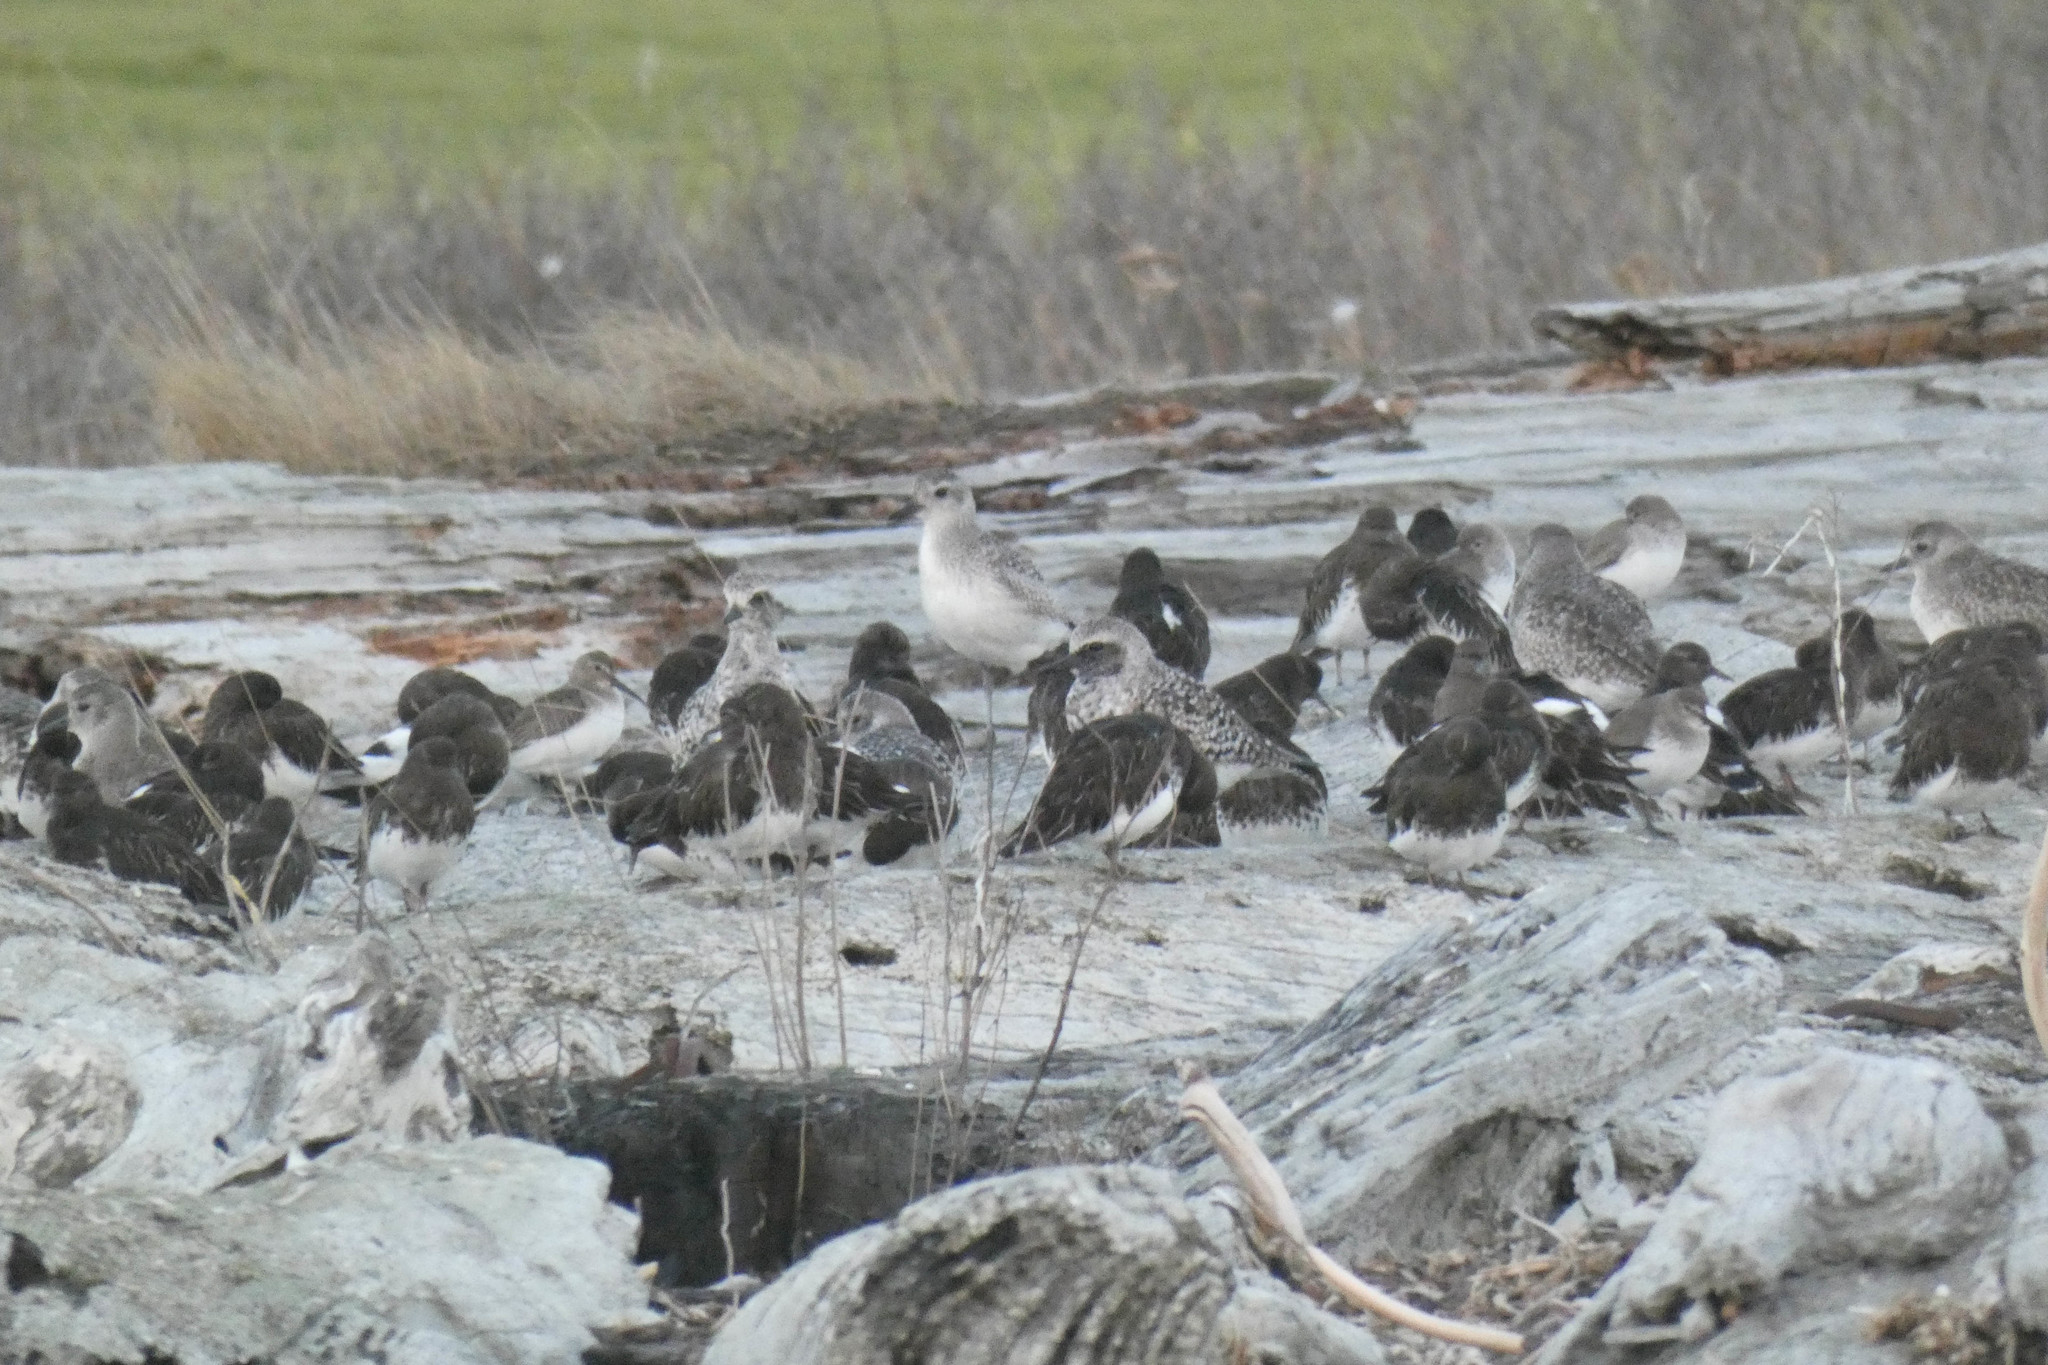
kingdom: Animalia
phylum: Chordata
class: Aves
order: Charadriiformes
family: Charadriidae
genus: Pluvialis
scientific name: Pluvialis squatarola
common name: Grey plover
